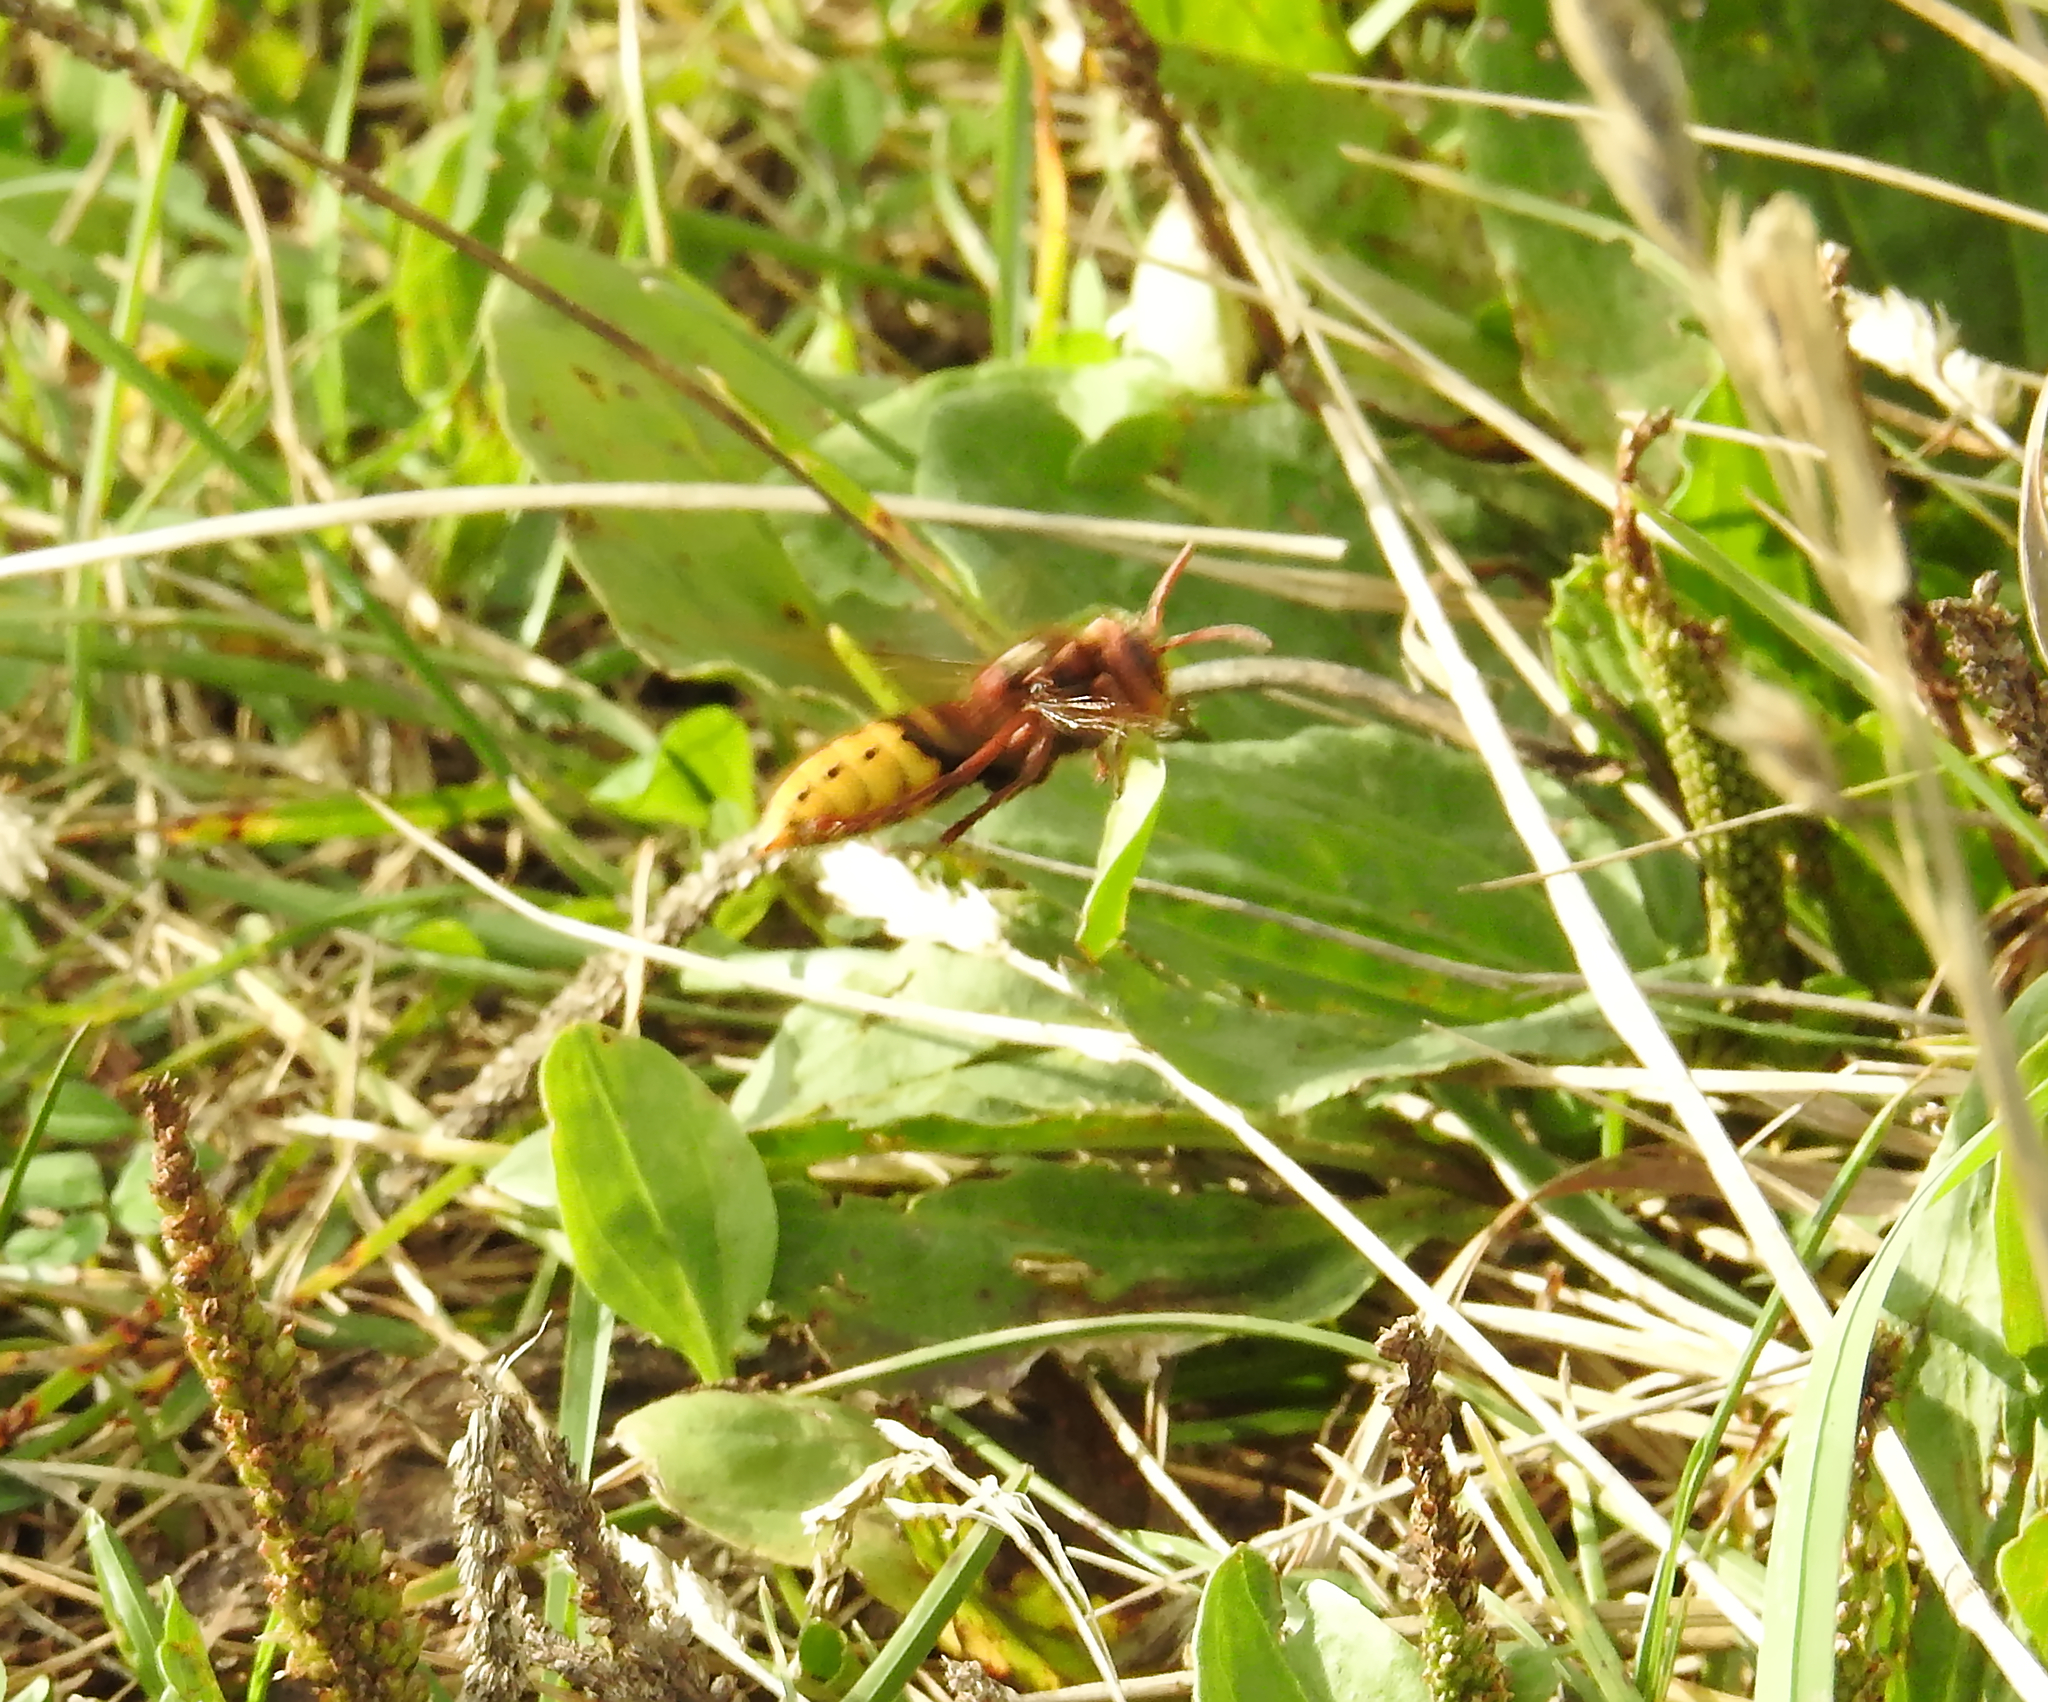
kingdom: Animalia
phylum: Arthropoda
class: Insecta
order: Hymenoptera
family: Vespidae
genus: Vespa
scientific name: Vespa crabro
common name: Hornet
